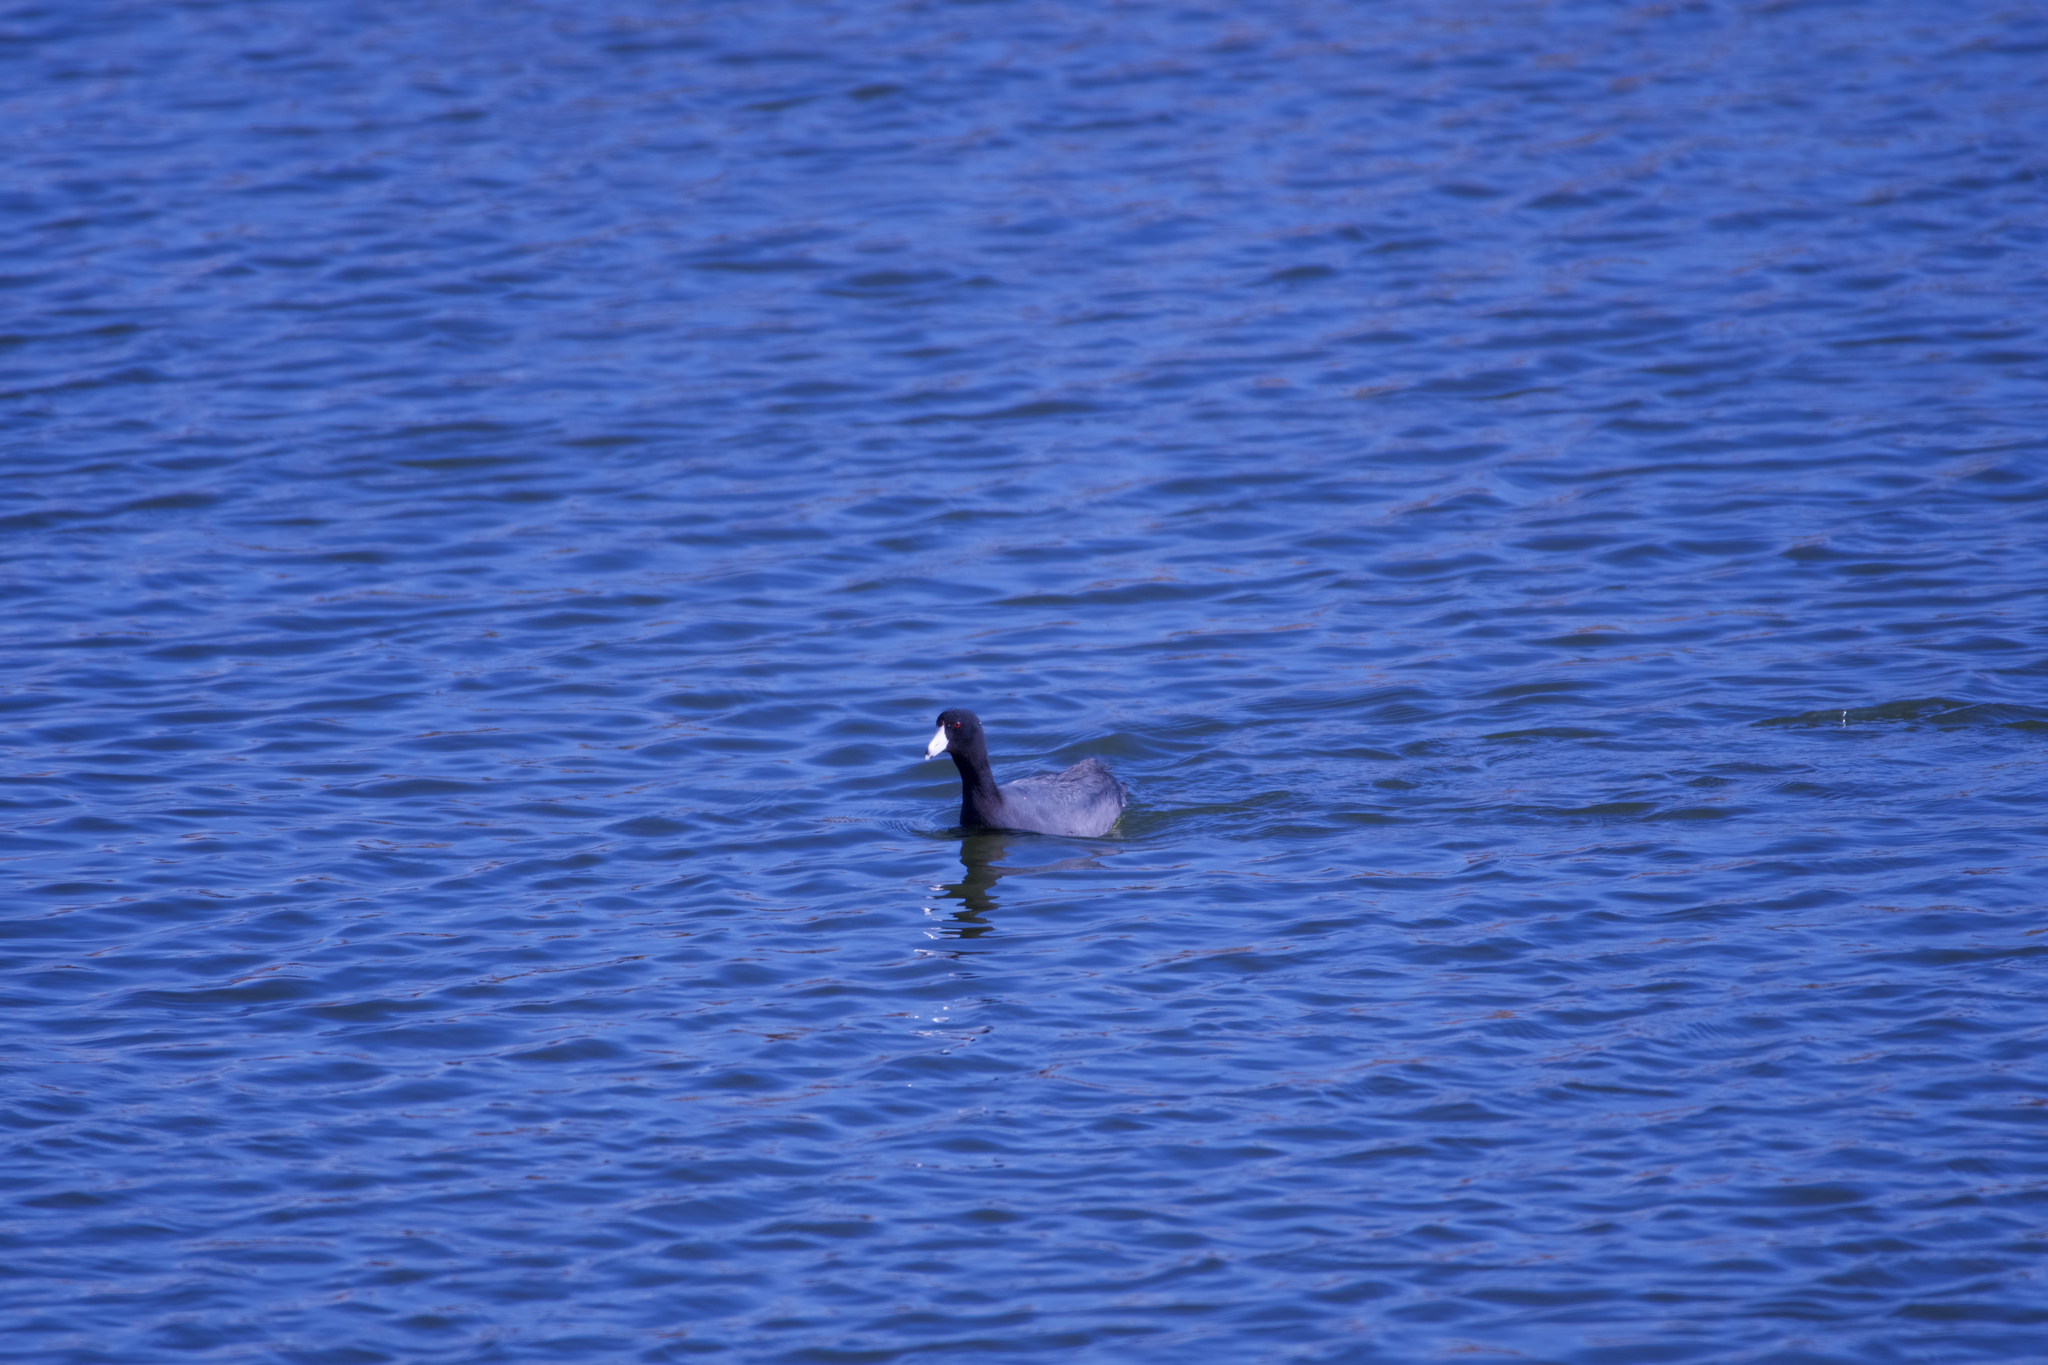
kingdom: Animalia
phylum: Chordata
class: Aves
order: Gruiformes
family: Rallidae
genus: Fulica
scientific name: Fulica americana
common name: American coot
